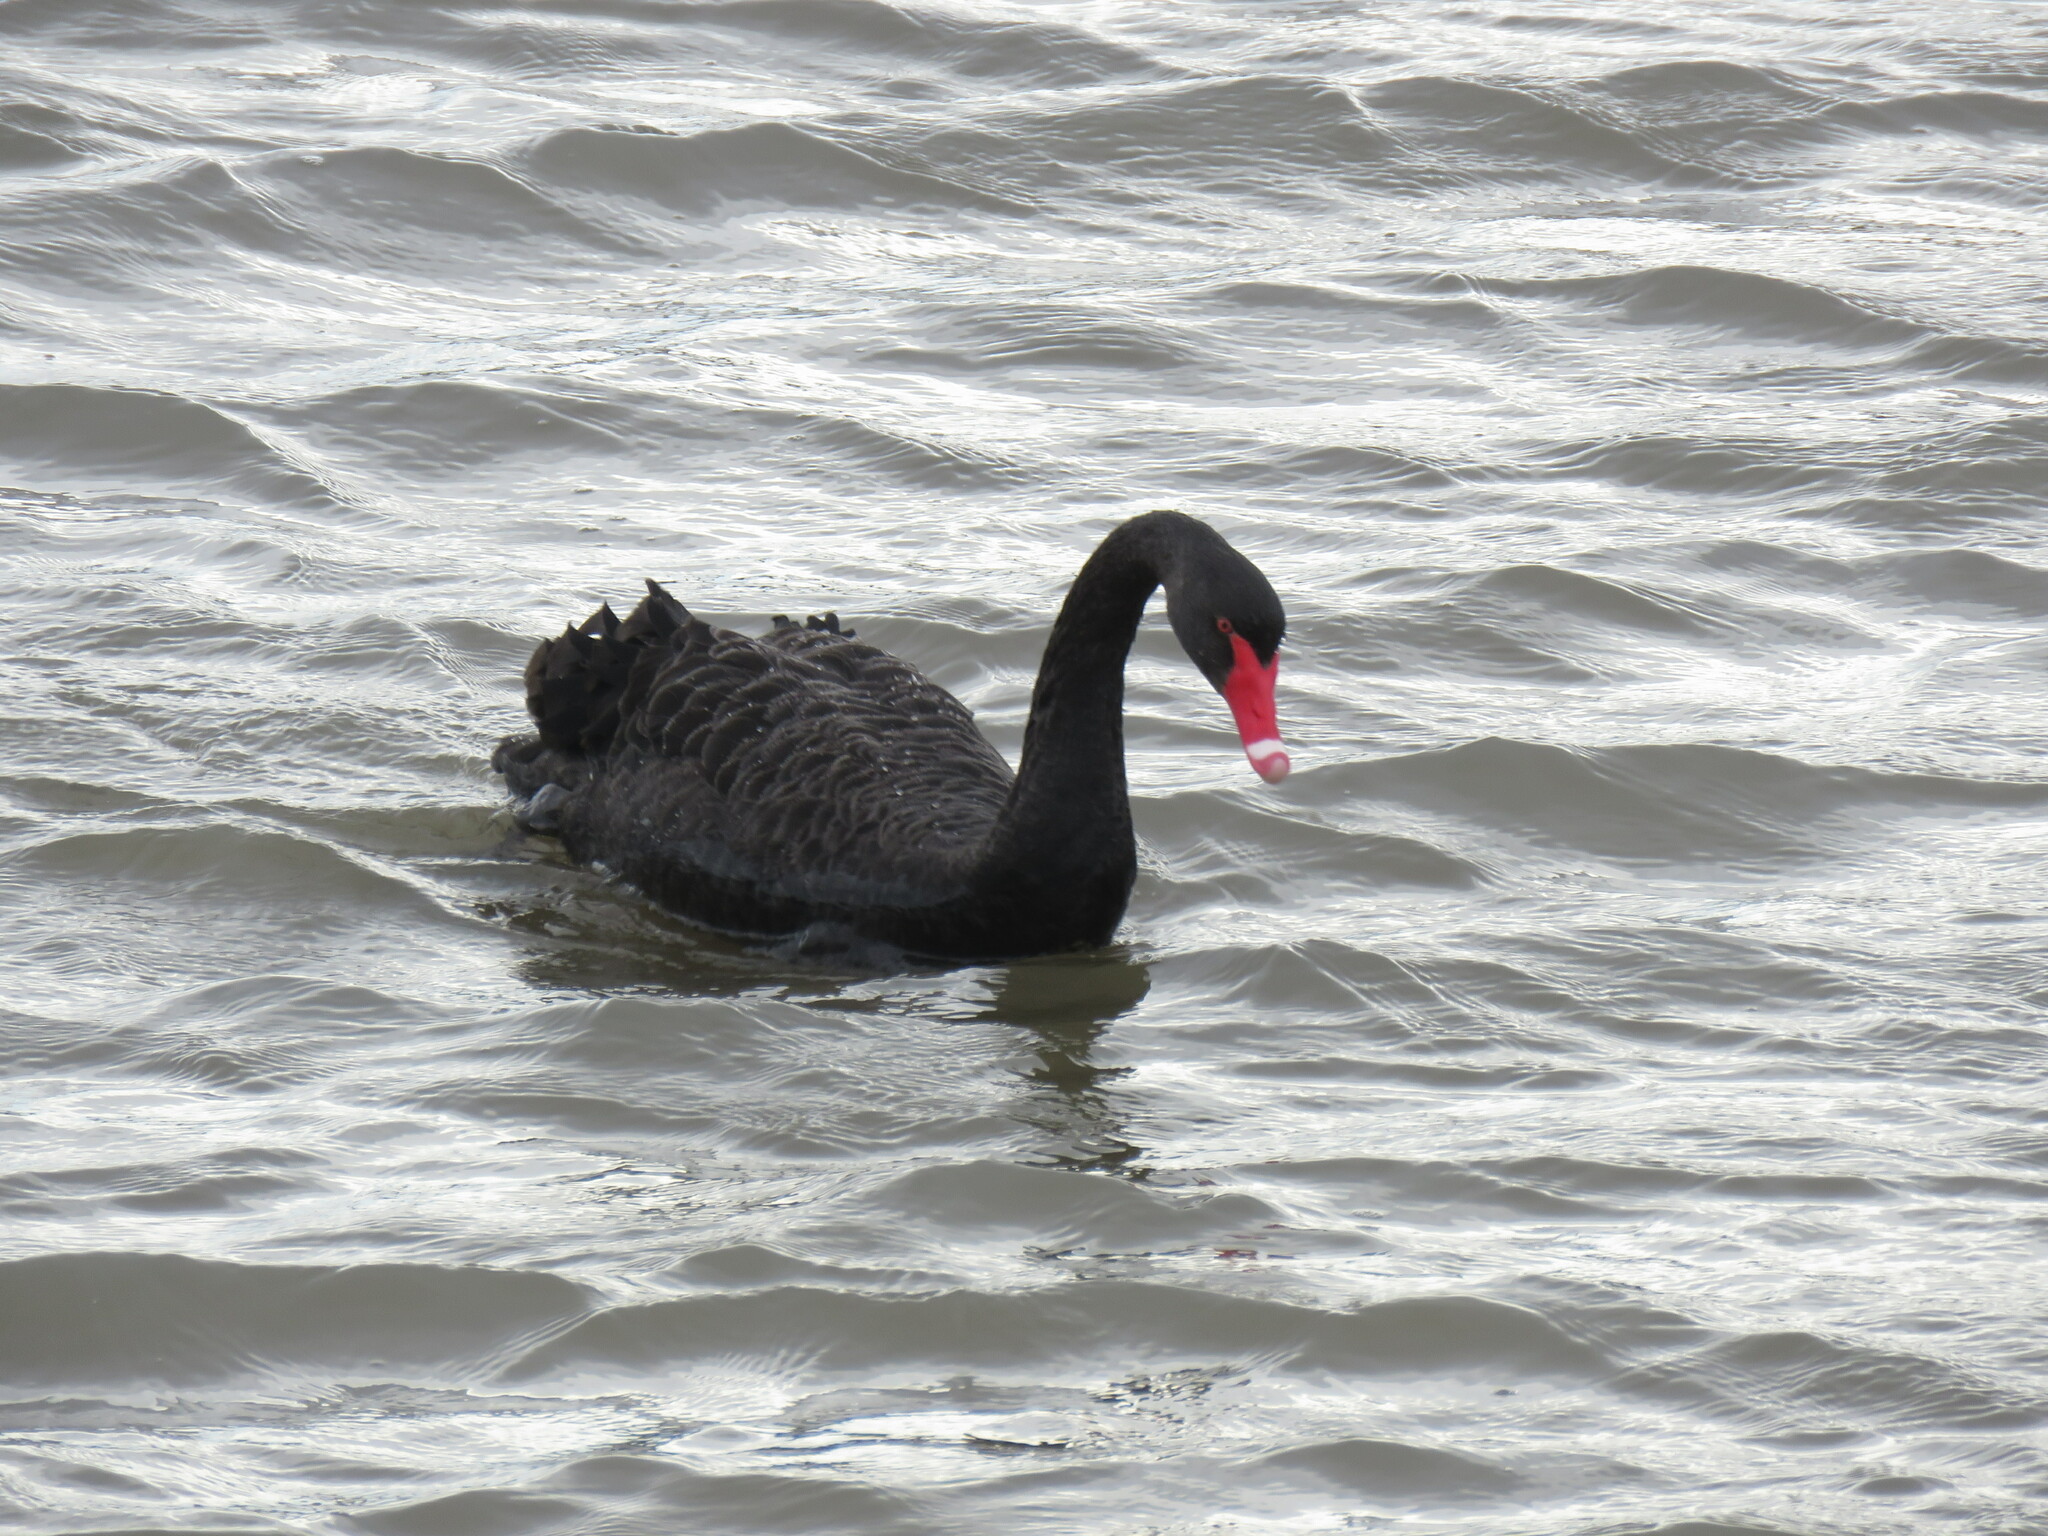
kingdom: Animalia
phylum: Chordata
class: Aves
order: Anseriformes
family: Anatidae
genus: Cygnus
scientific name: Cygnus atratus
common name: Black swan
